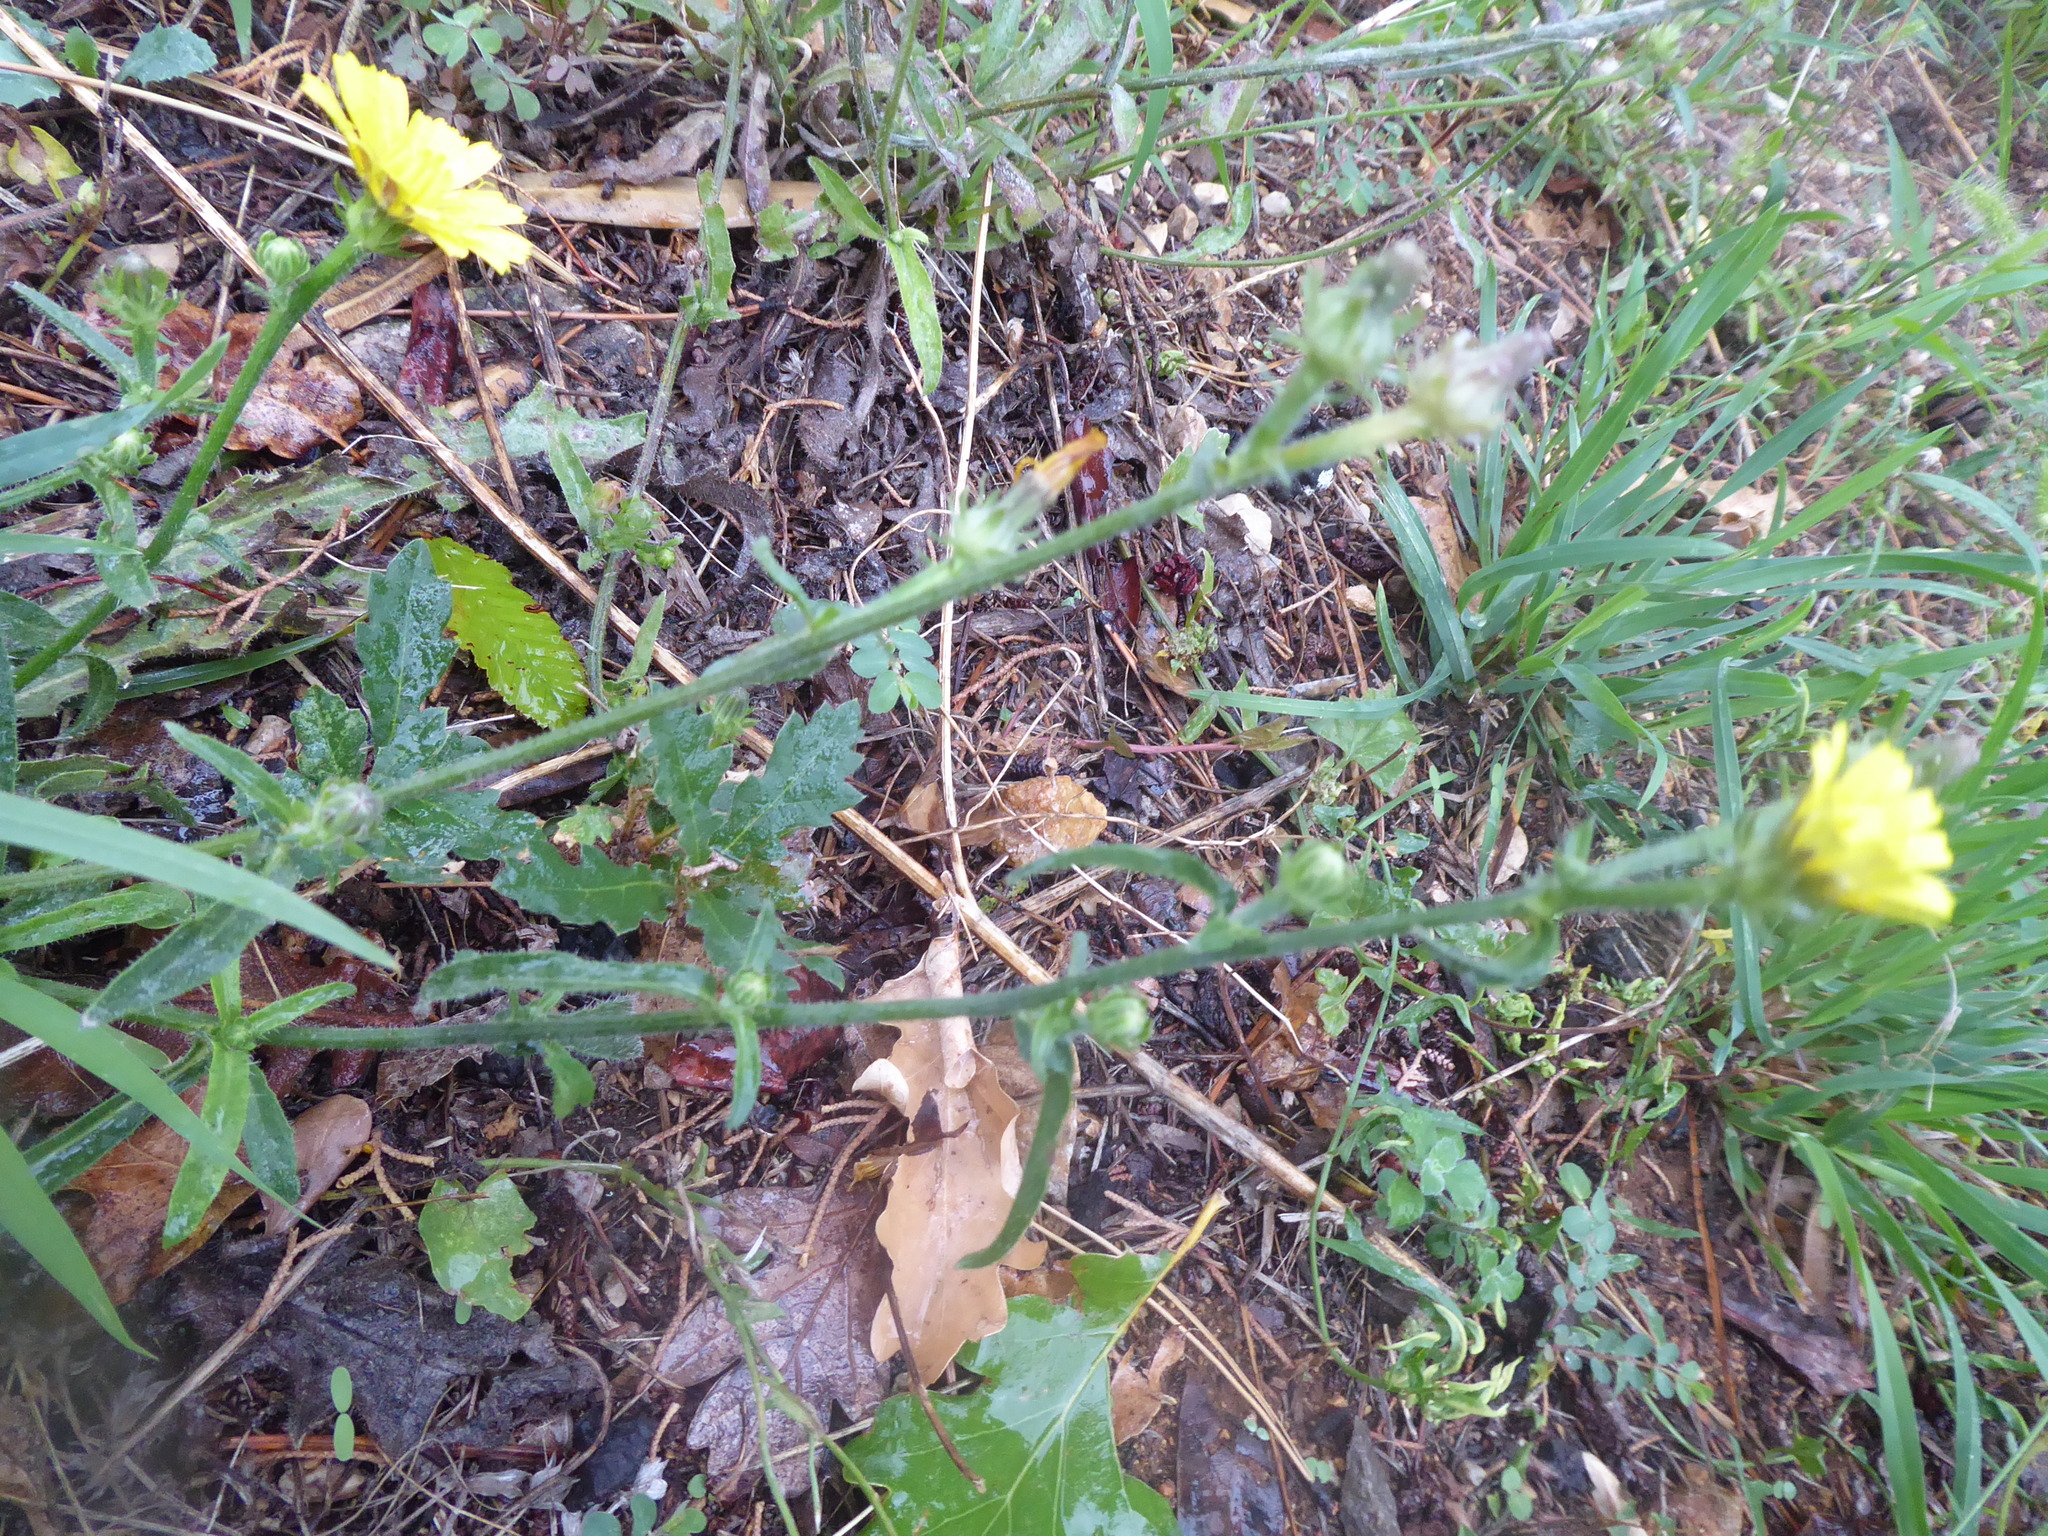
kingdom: Plantae
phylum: Tracheophyta
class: Magnoliopsida
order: Asterales
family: Asteraceae
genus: Picris
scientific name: Picris hieracioides
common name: Hawkweed oxtongue
